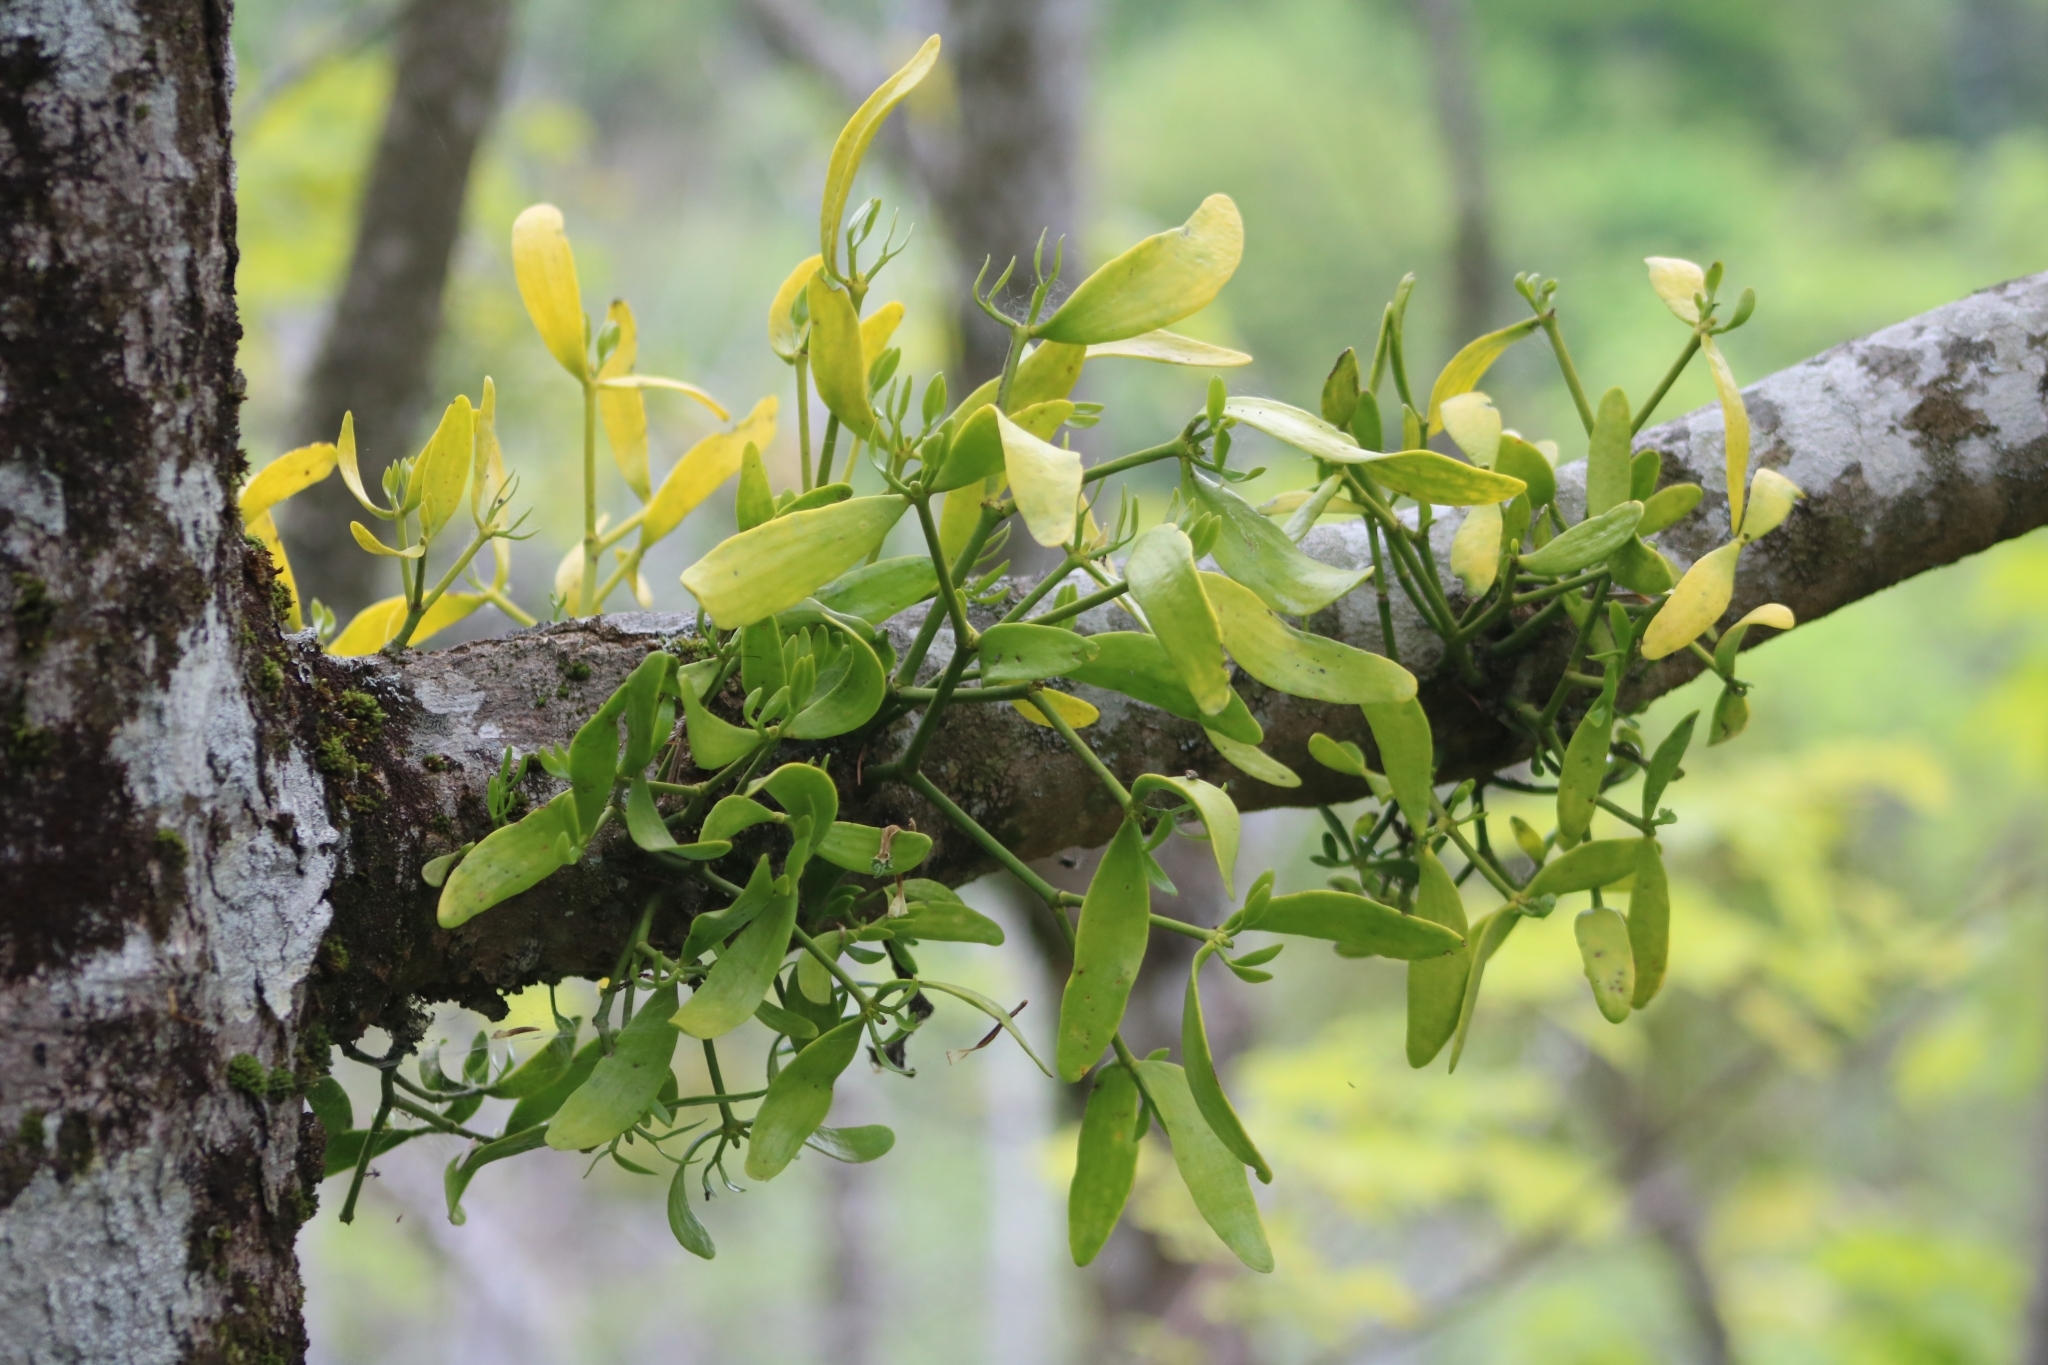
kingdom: Plantae
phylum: Tracheophyta
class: Magnoliopsida
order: Santalales
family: Viscaceae
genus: Viscum
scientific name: Viscum album
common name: Mistletoe
